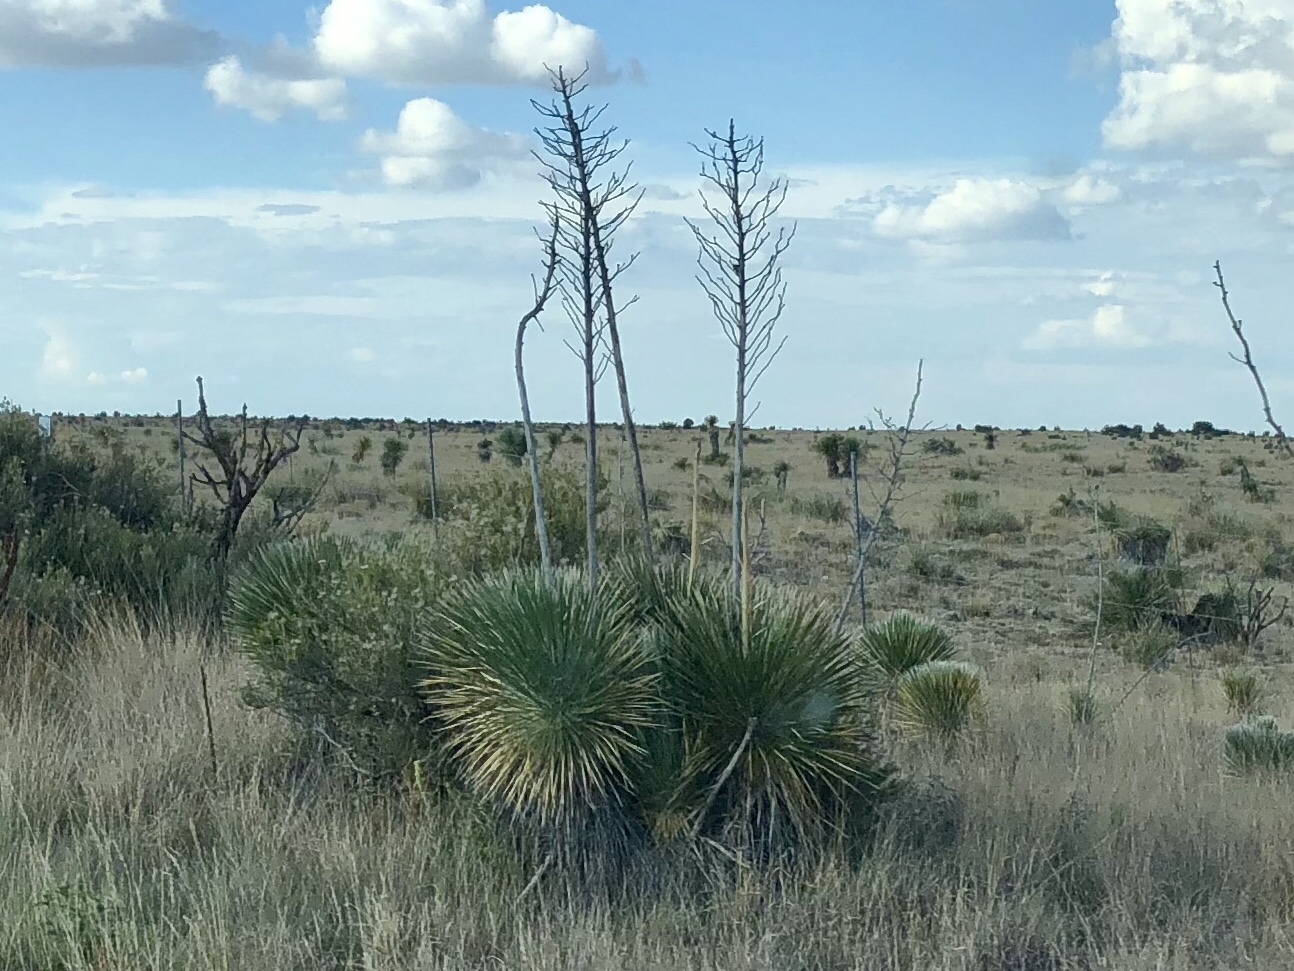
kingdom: Plantae
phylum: Tracheophyta
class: Liliopsida
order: Asparagales
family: Asparagaceae
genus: Yucca
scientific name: Yucca elata
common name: Palmella
